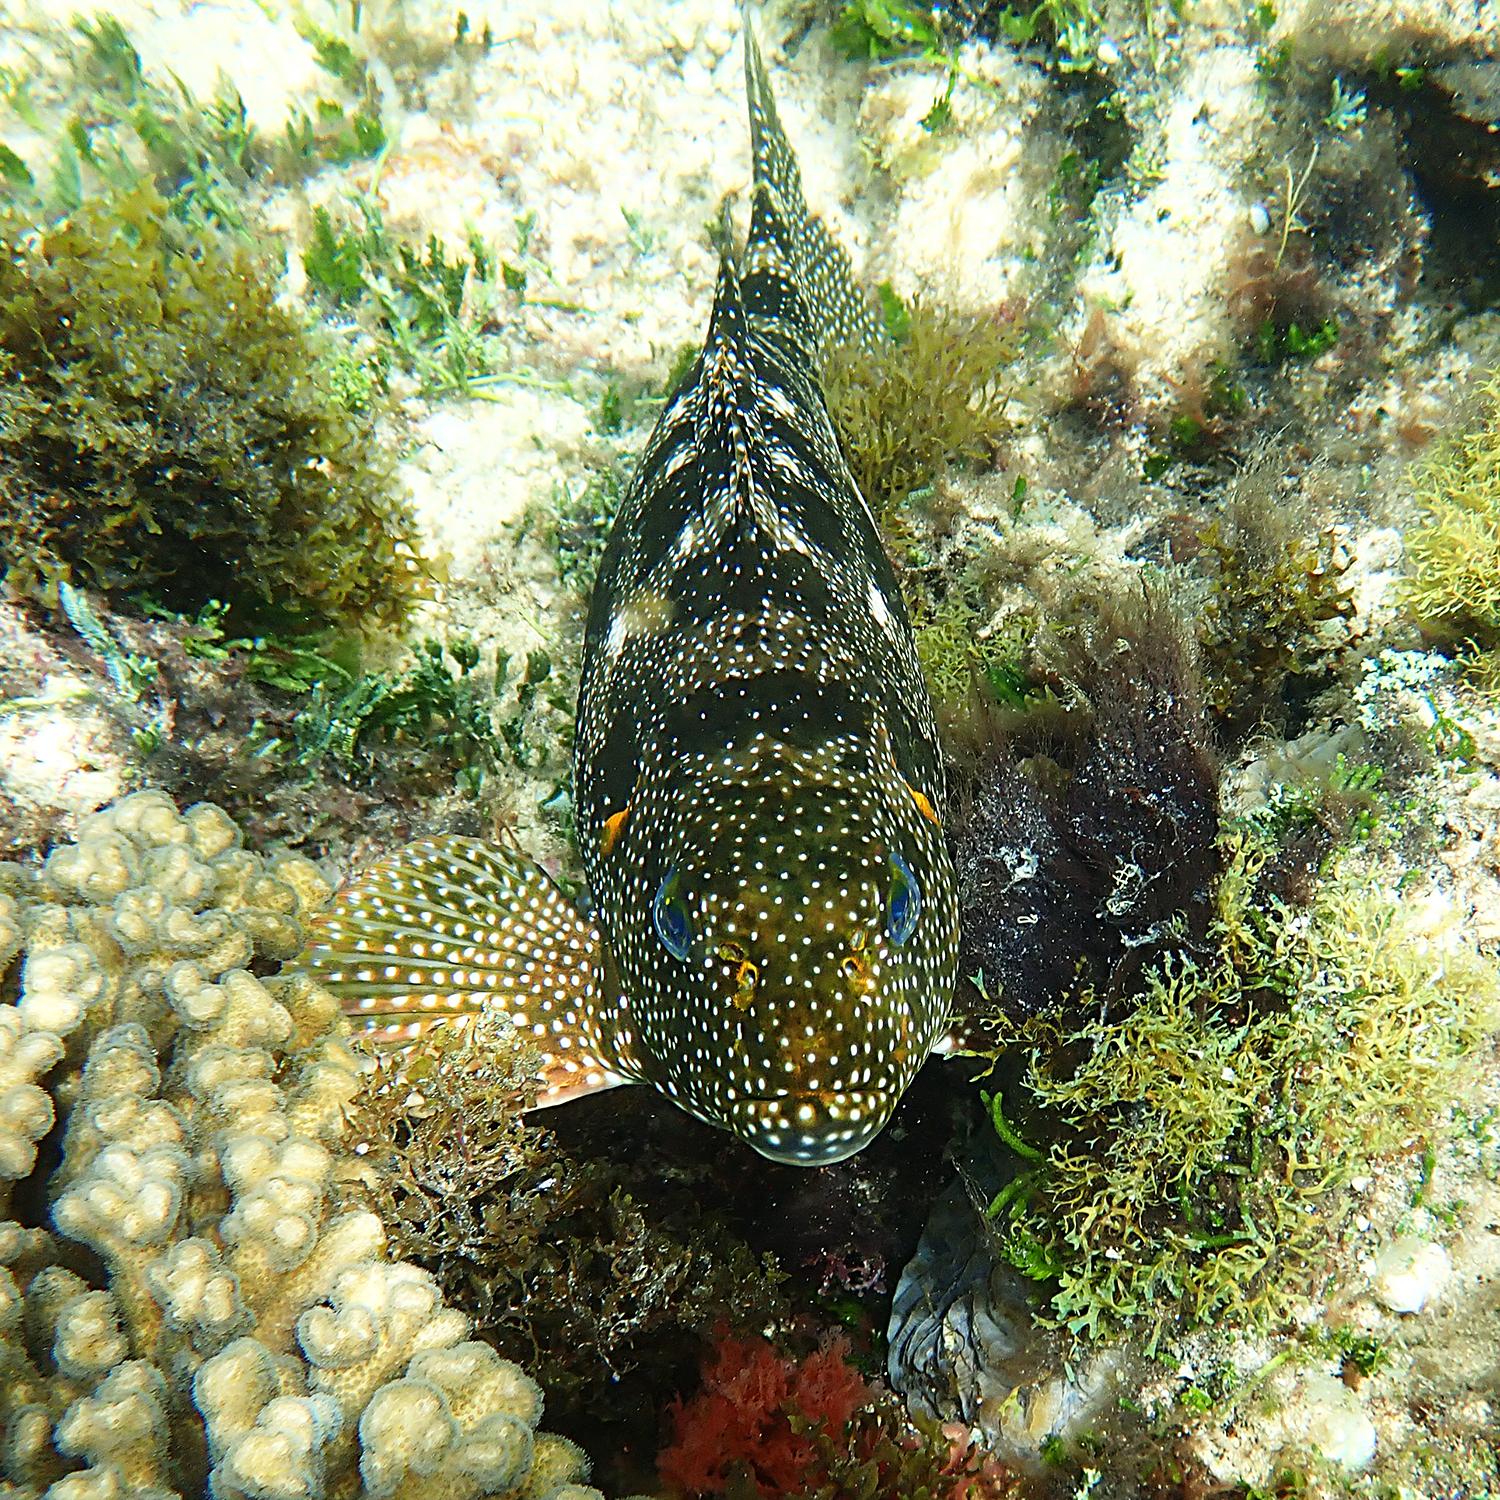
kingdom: Animalia
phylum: Chordata
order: Perciformes
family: Aplodactylidae
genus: Aplodactylus
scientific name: Aplodactylus etheridgii
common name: Notchheaded marblefish
